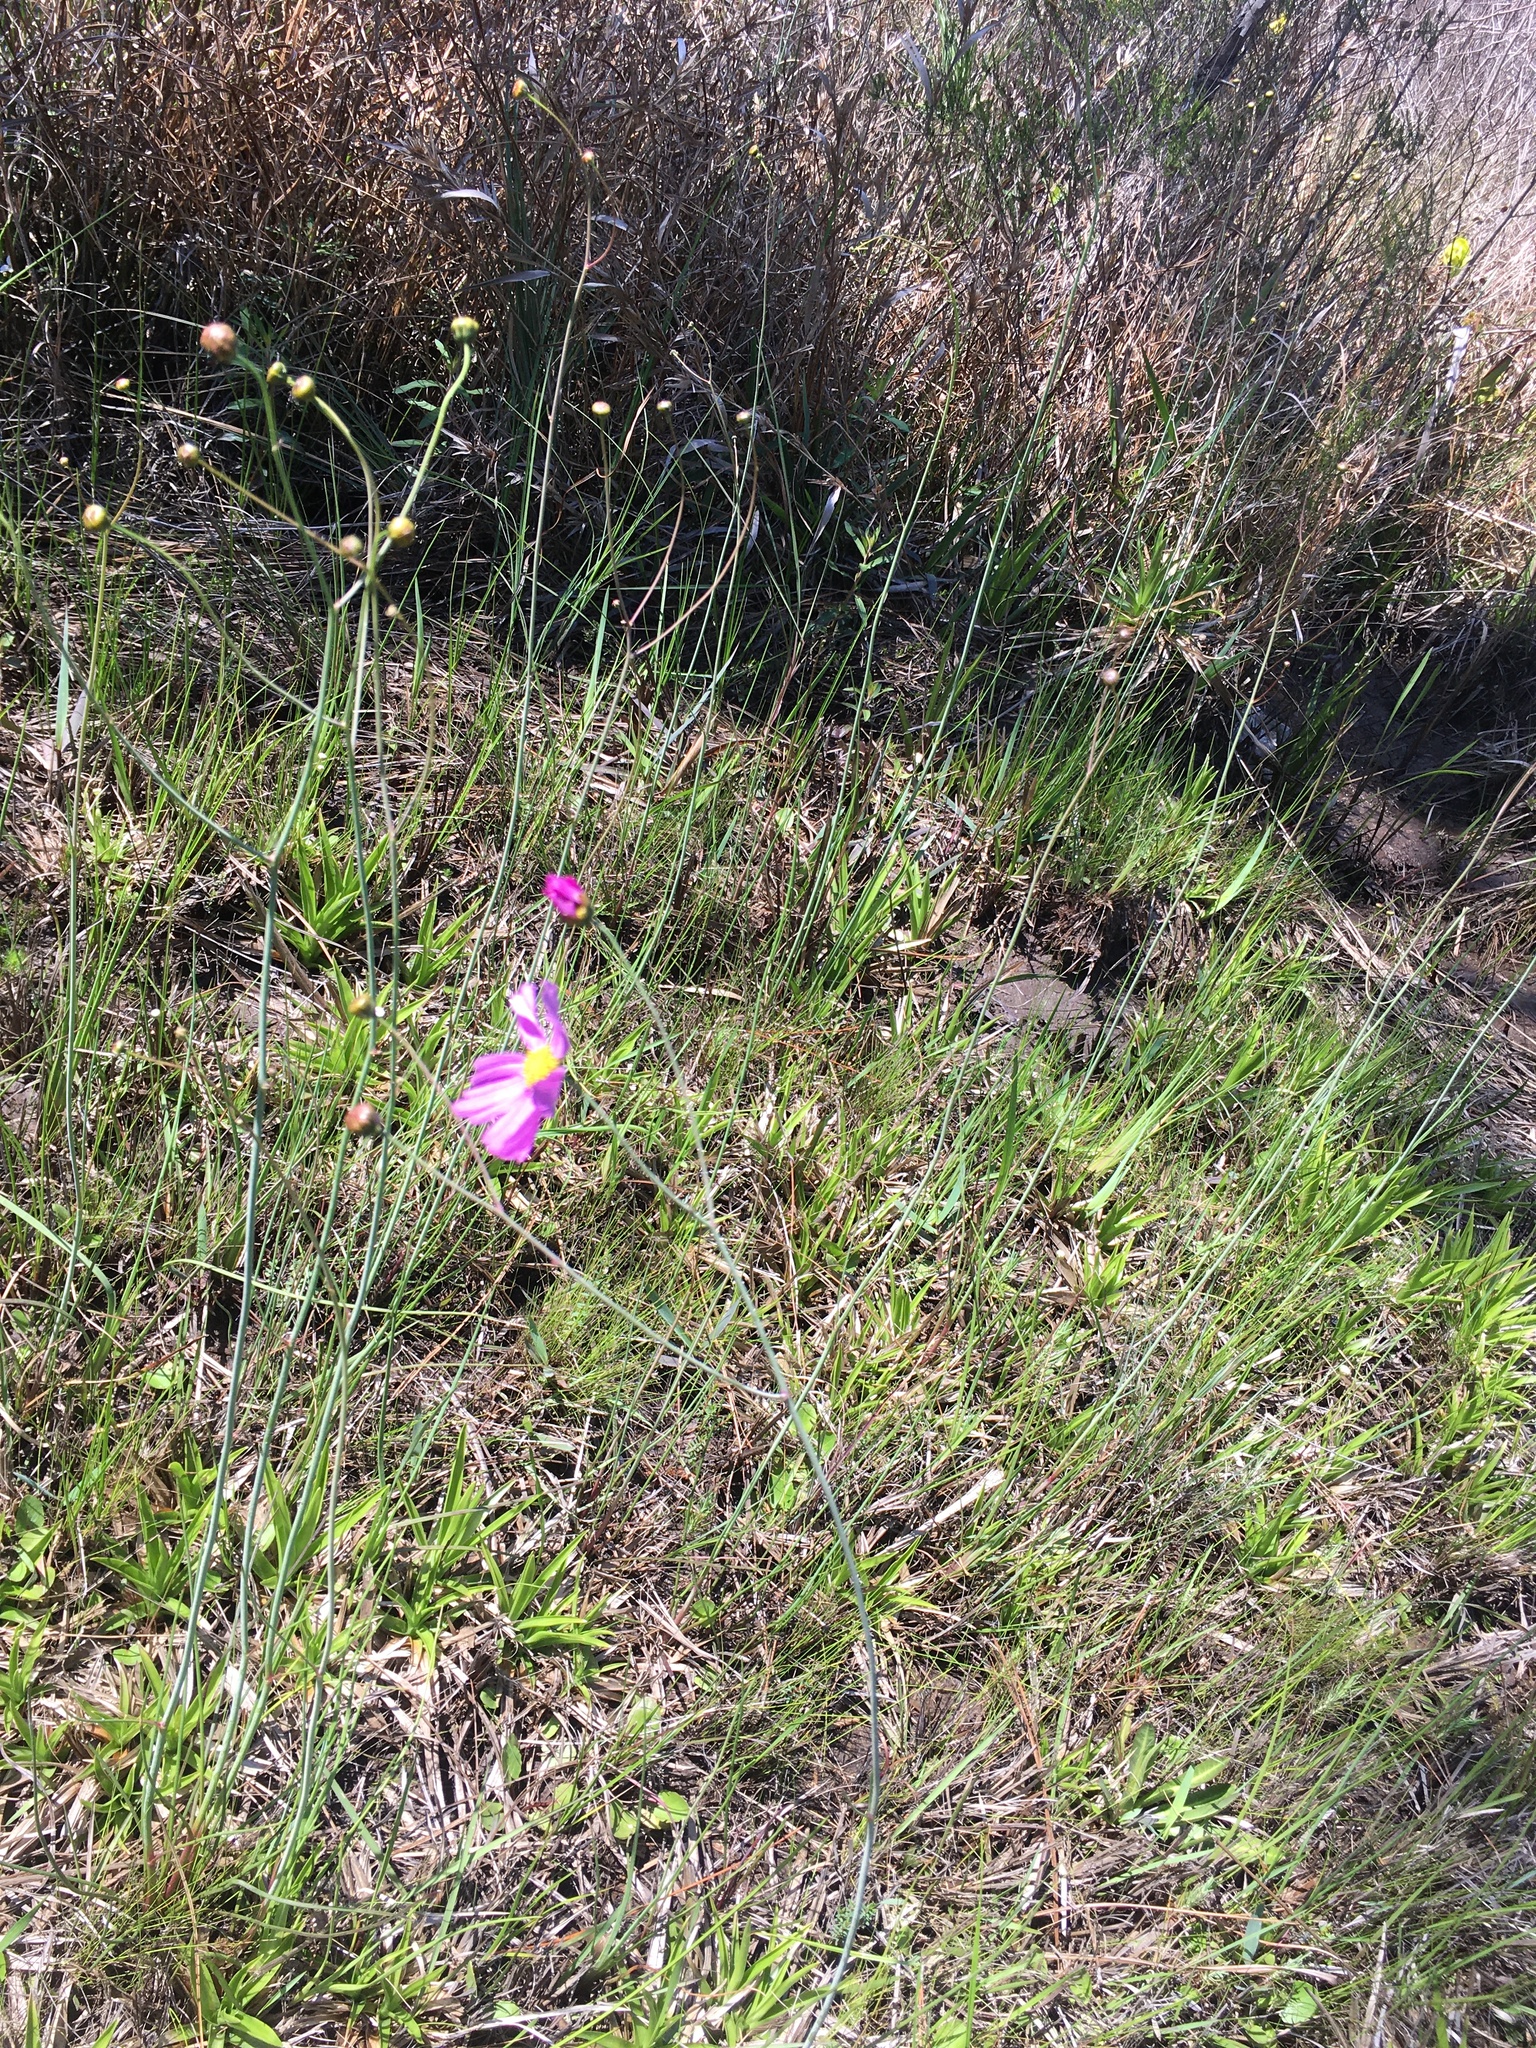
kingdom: Plantae
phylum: Tracheophyta
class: Magnoliopsida
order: Asterales
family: Asteraceae
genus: Coreopsis
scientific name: Coreopsis nudata
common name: Purple tickseed
